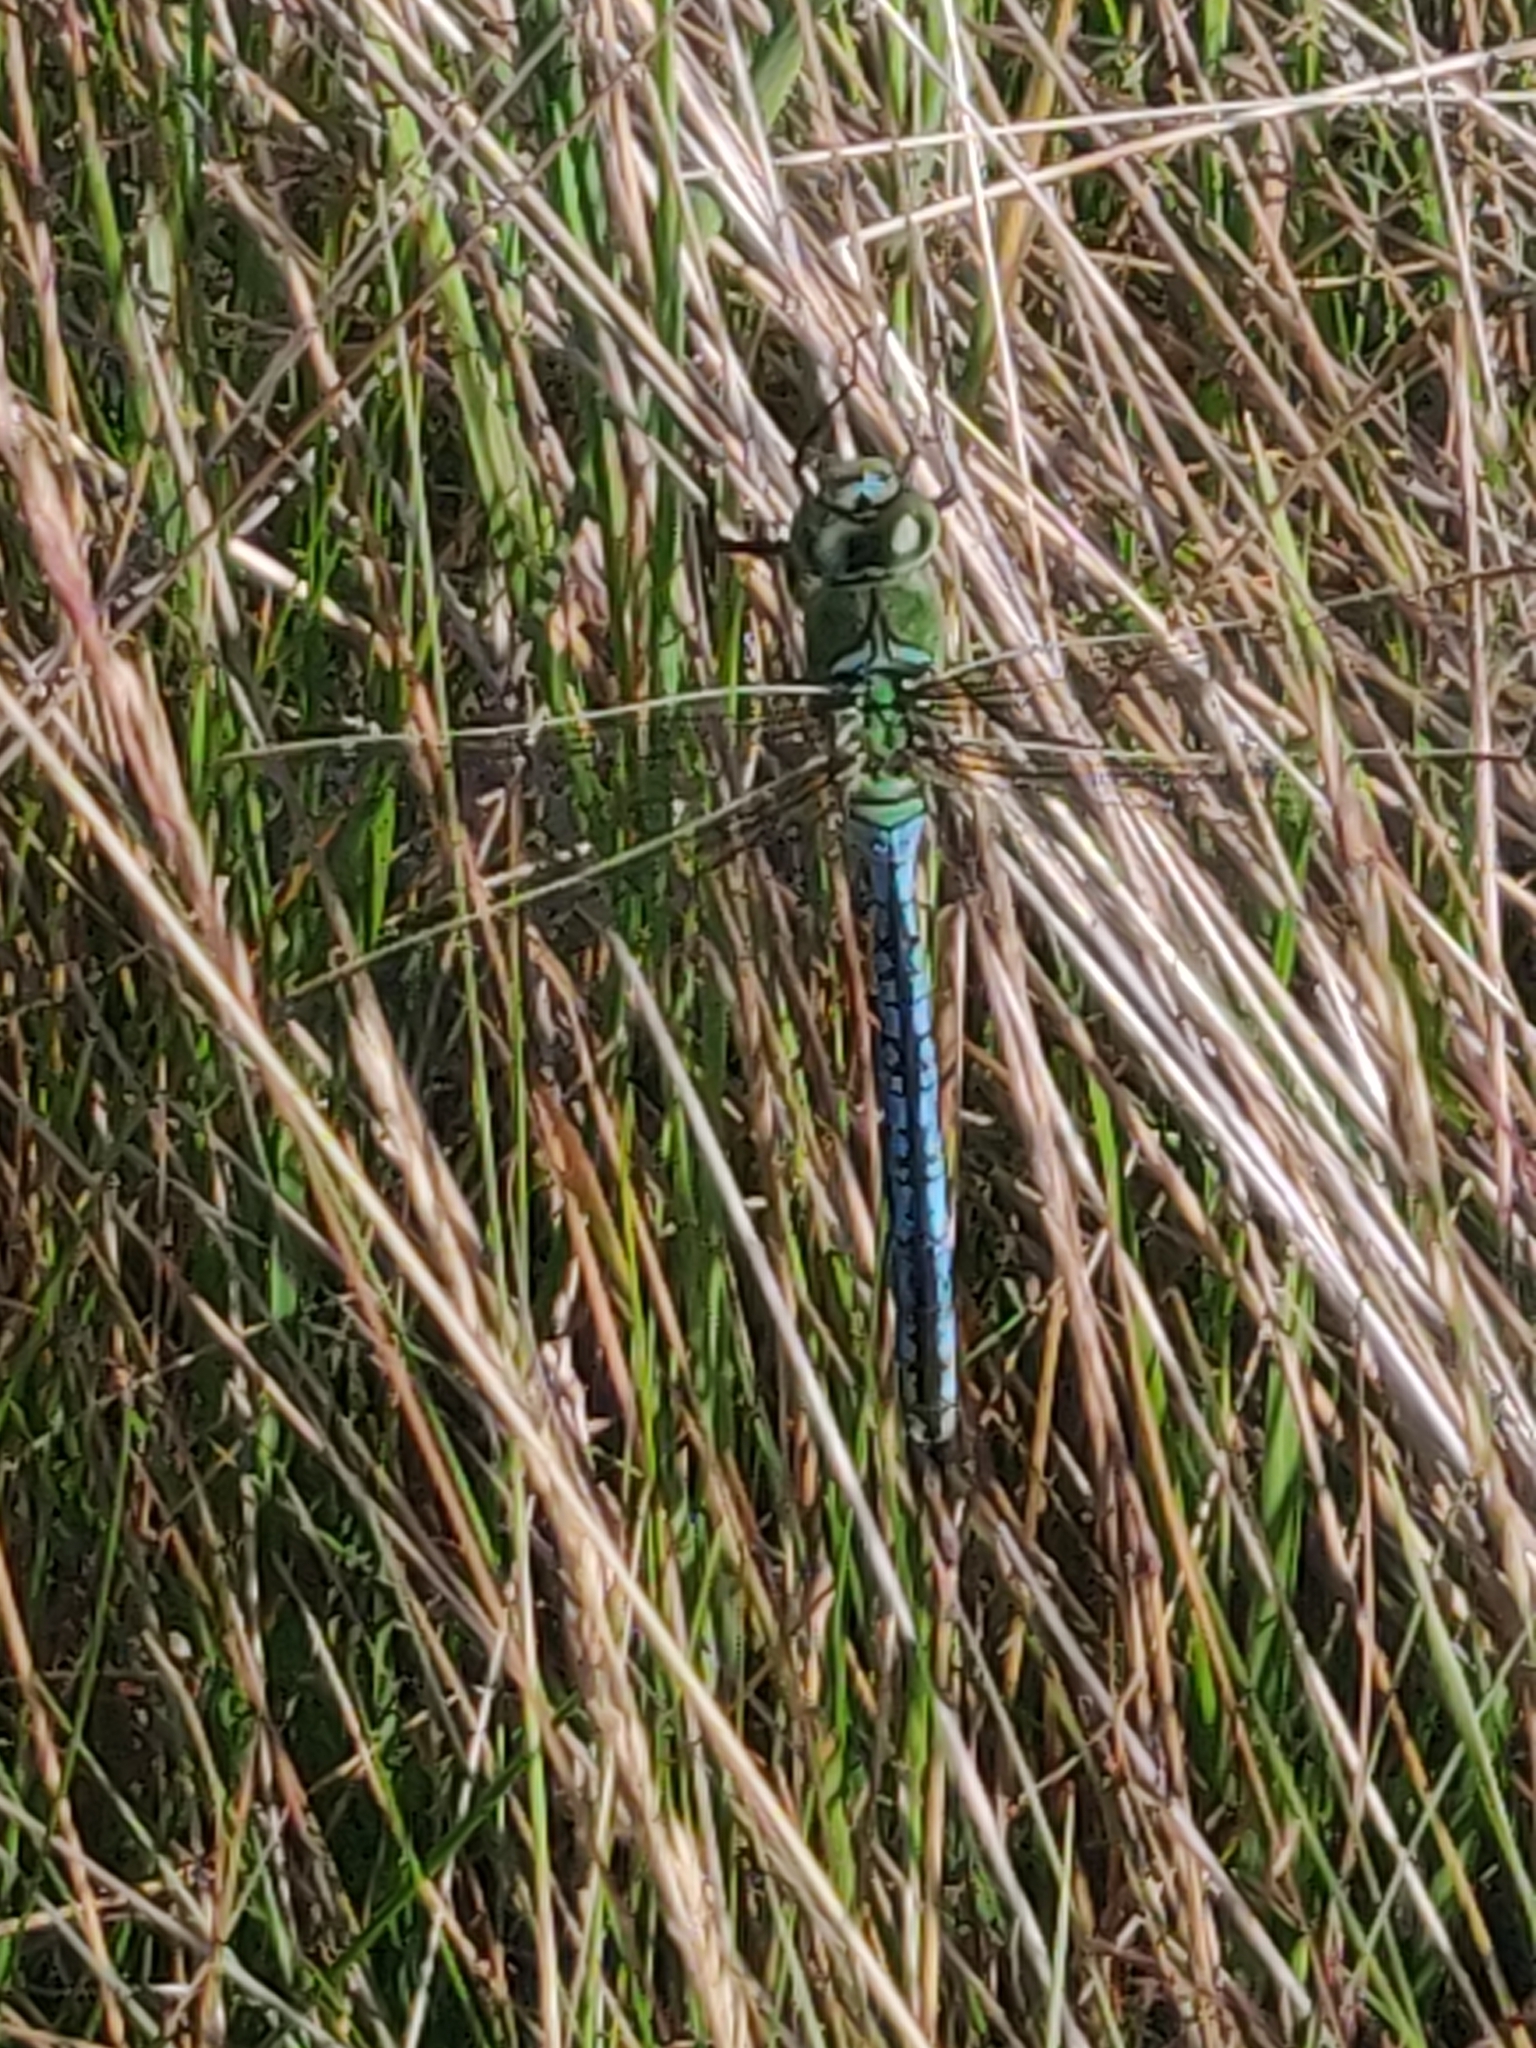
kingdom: Animalia
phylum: Arthropoda
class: Insecta
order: Odonata
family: Aeshnidae
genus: Anax
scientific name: Anax imperator
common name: Emperor dragonfly
